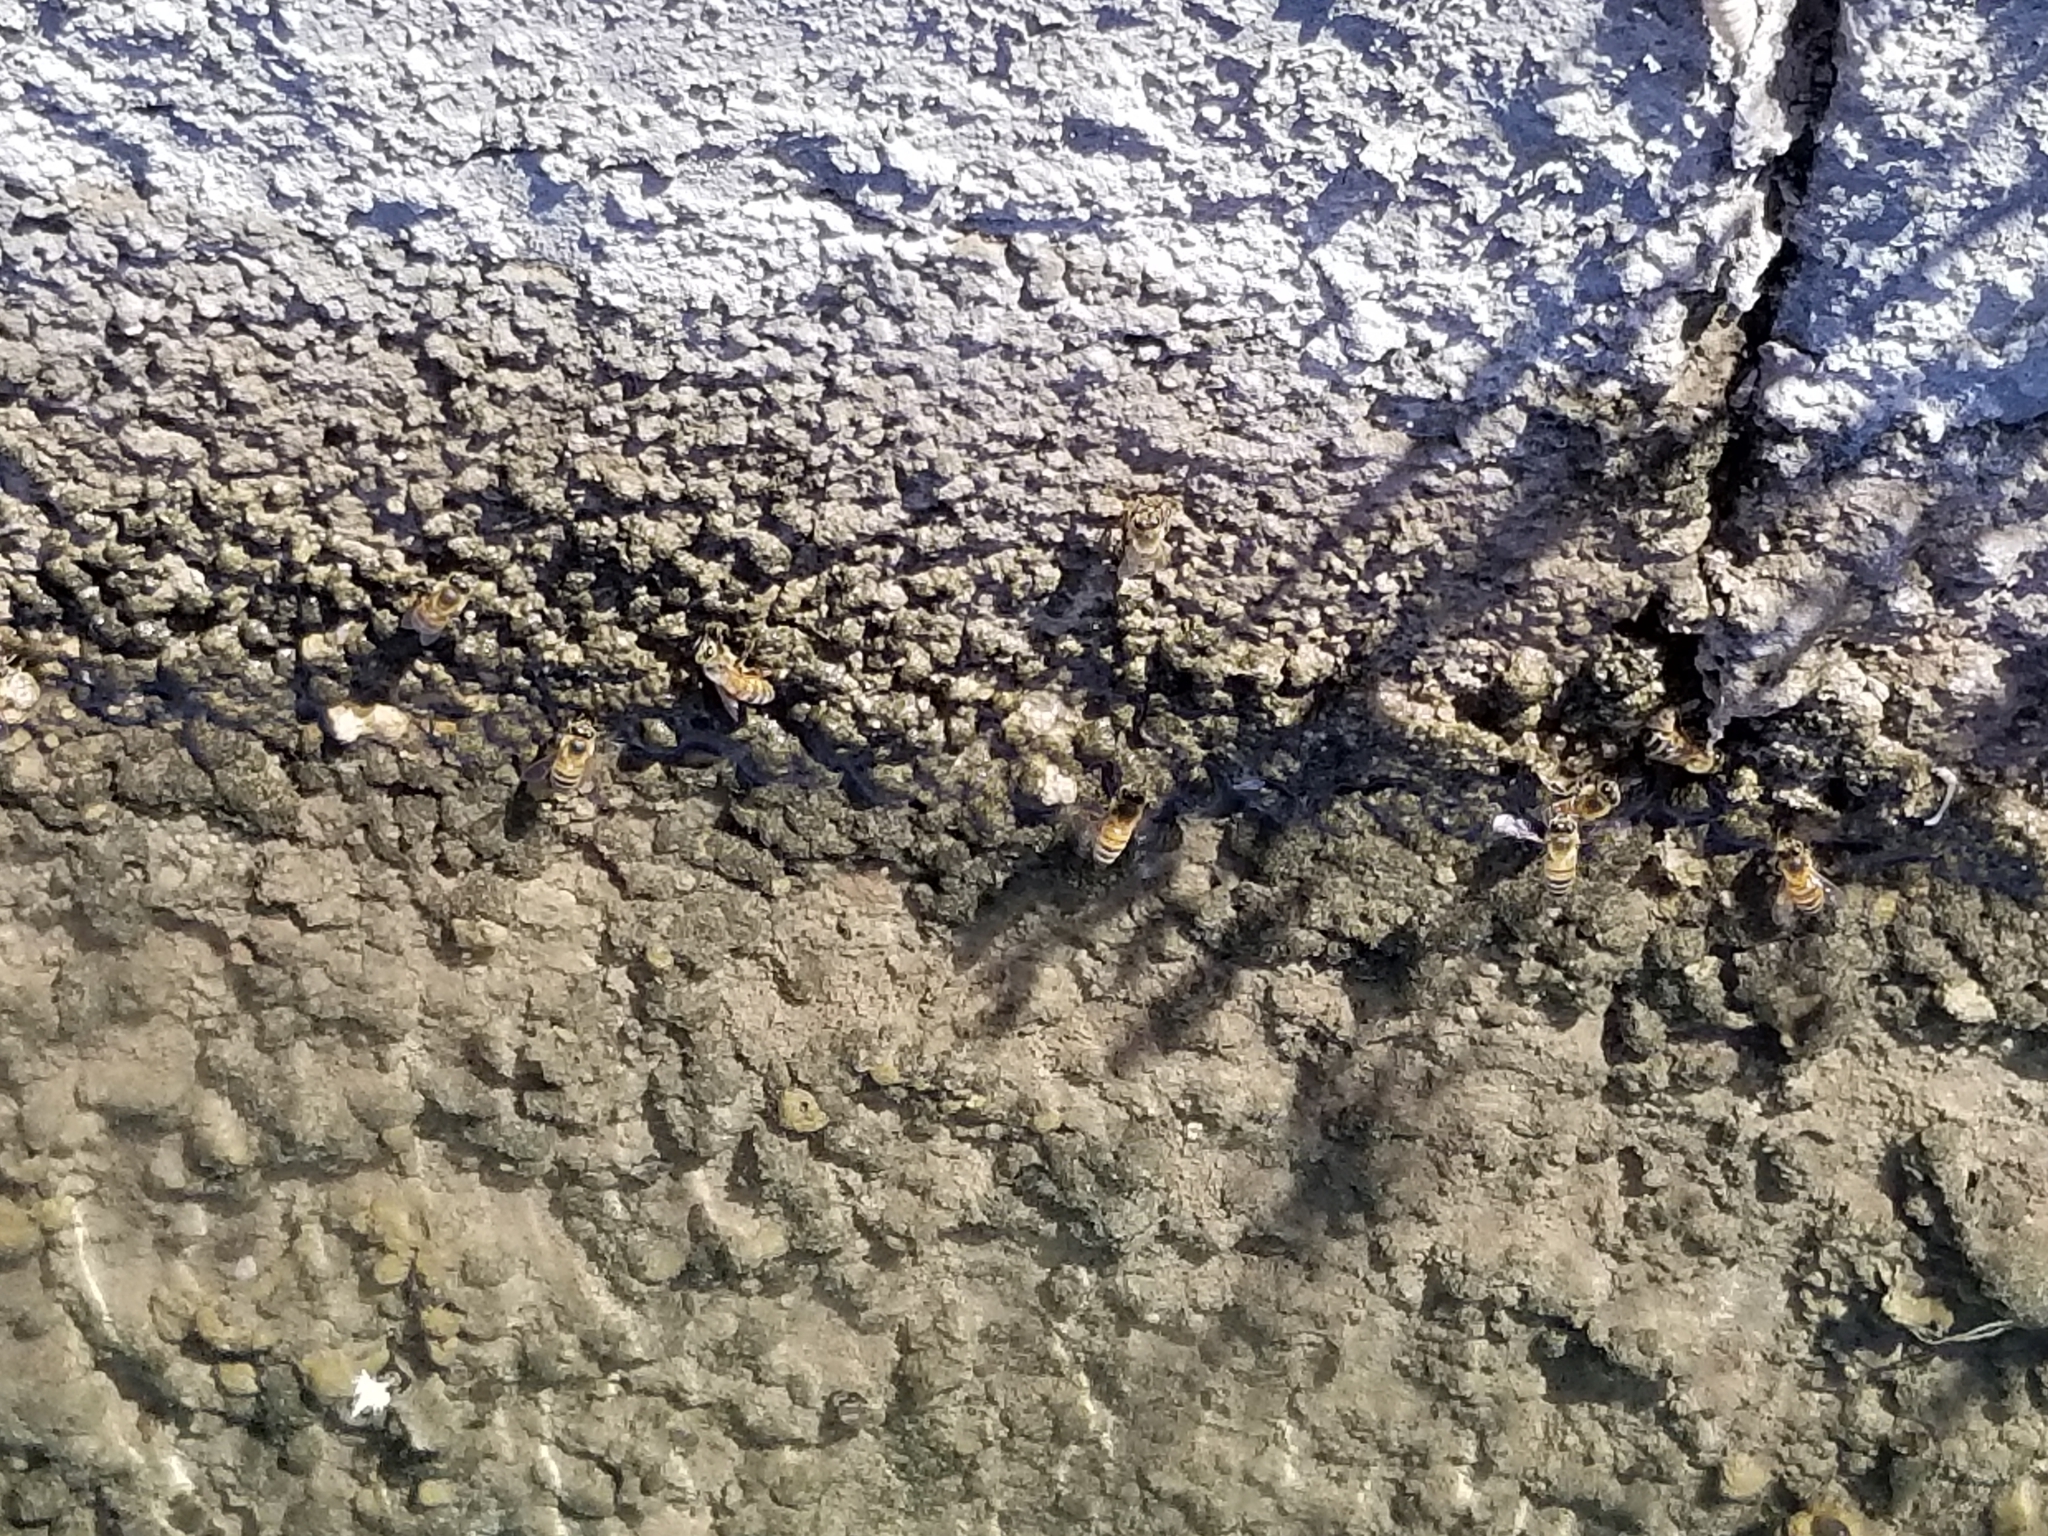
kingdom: Animalia
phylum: Arthropoda
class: Insecta
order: Hymenoptera
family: Apidae
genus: Apis
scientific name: Apis mellifera
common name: Honey bee
